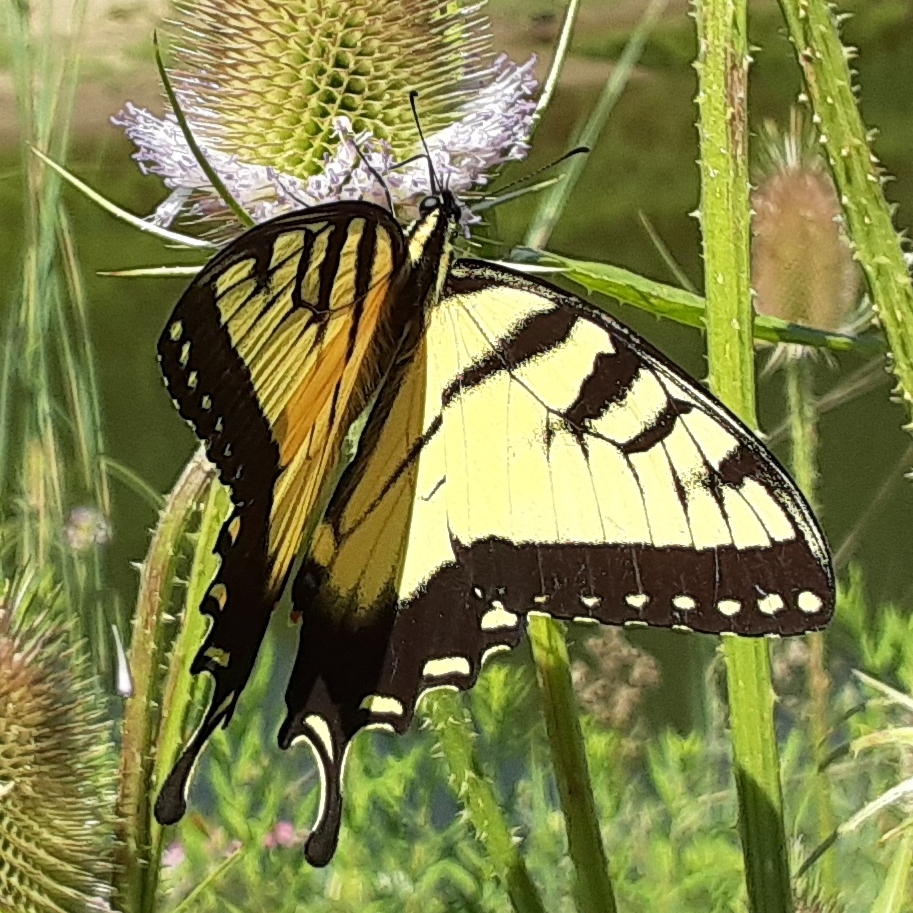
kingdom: Animalia
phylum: Arthropoda
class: Insecta
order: Lepidoptera
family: Papilionidae
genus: Papilio
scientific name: Papilio glaucus
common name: Tiger swallowtail
